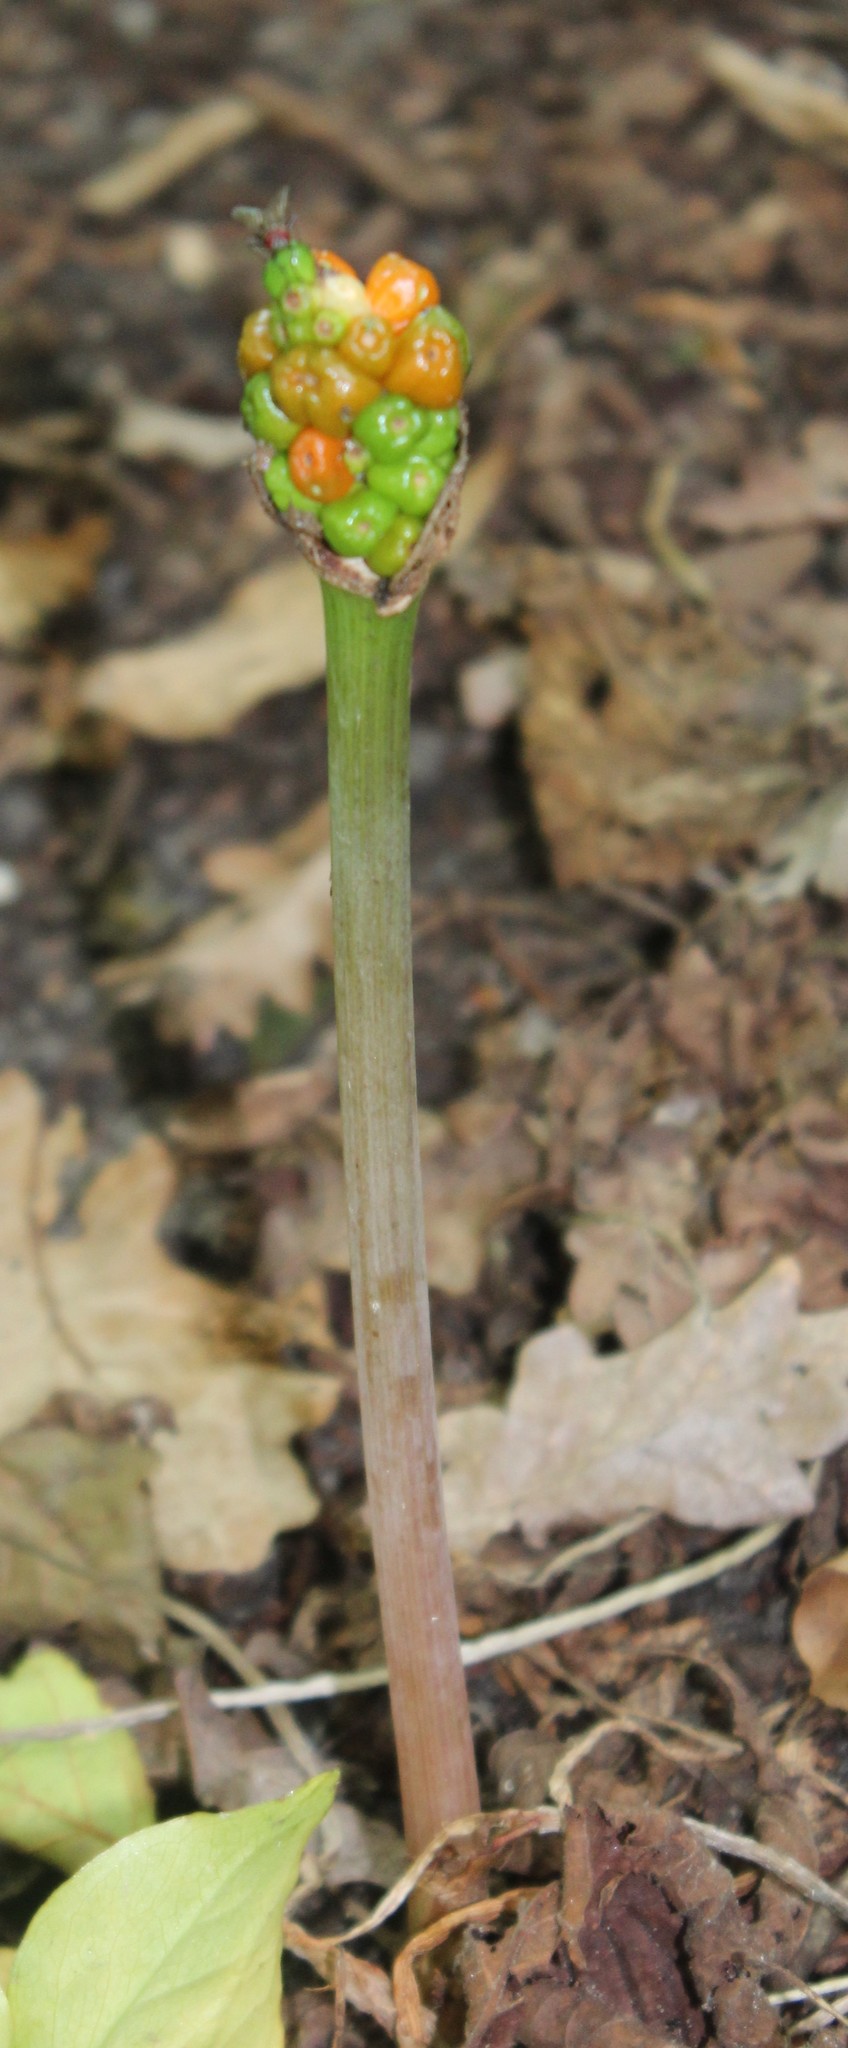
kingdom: Plantae
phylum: Tracheophyta
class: Liliopsida
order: Alismatales
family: Araceae
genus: Arum
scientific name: Arum maculatum
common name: Lords-and-ladies
